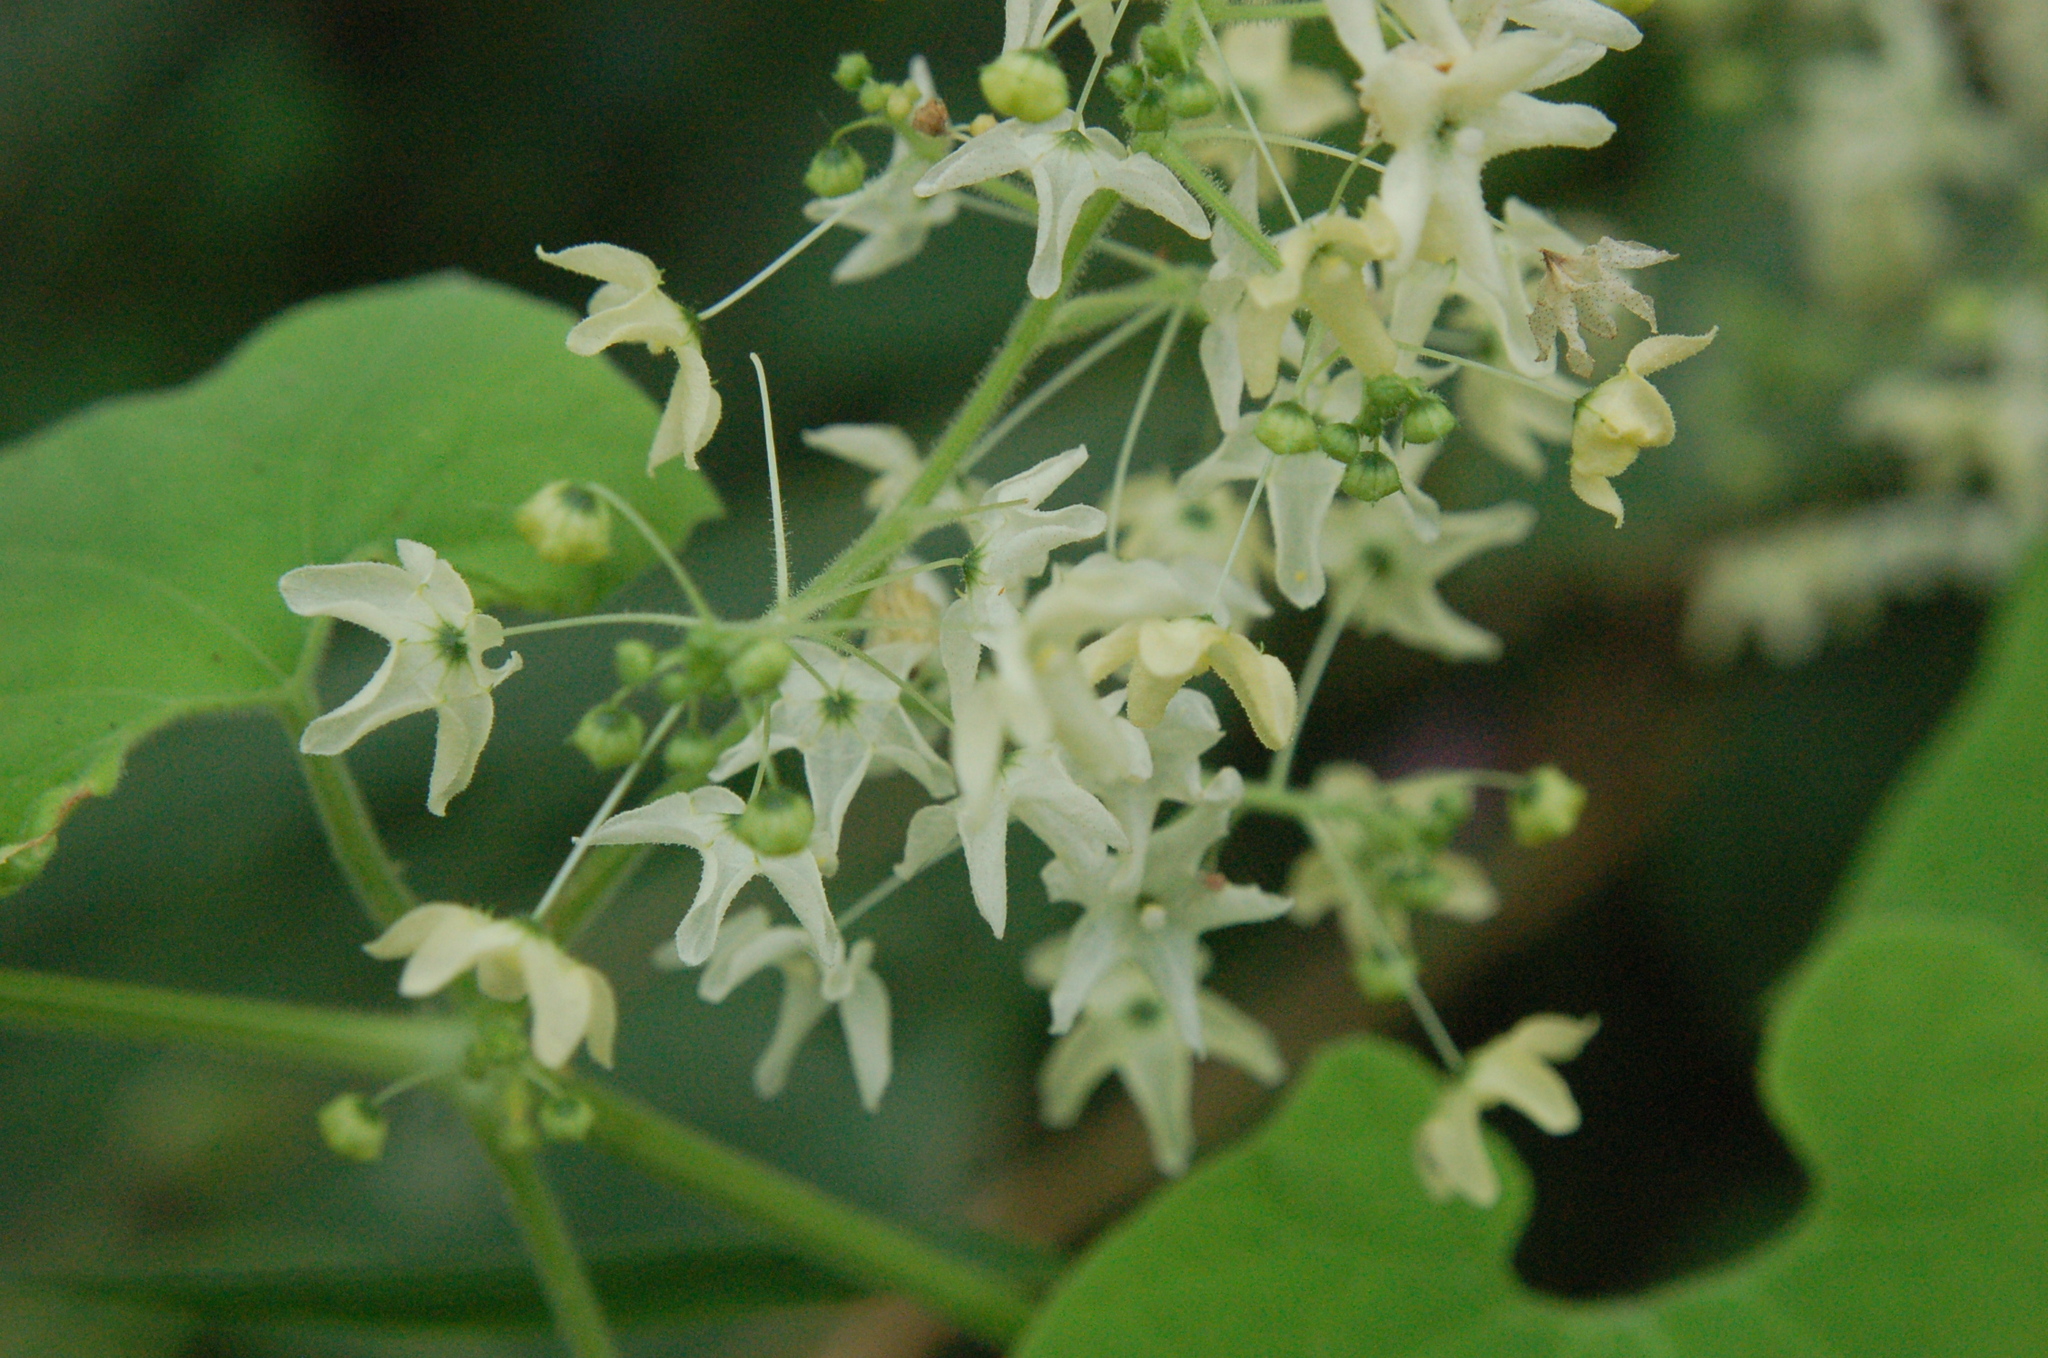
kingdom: Plantae
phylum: Tracheophyta
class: Magnoliopsida
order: Cucurbitales
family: Cucurbitaceae
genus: Sicyos
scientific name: Sicyos sertulifer
